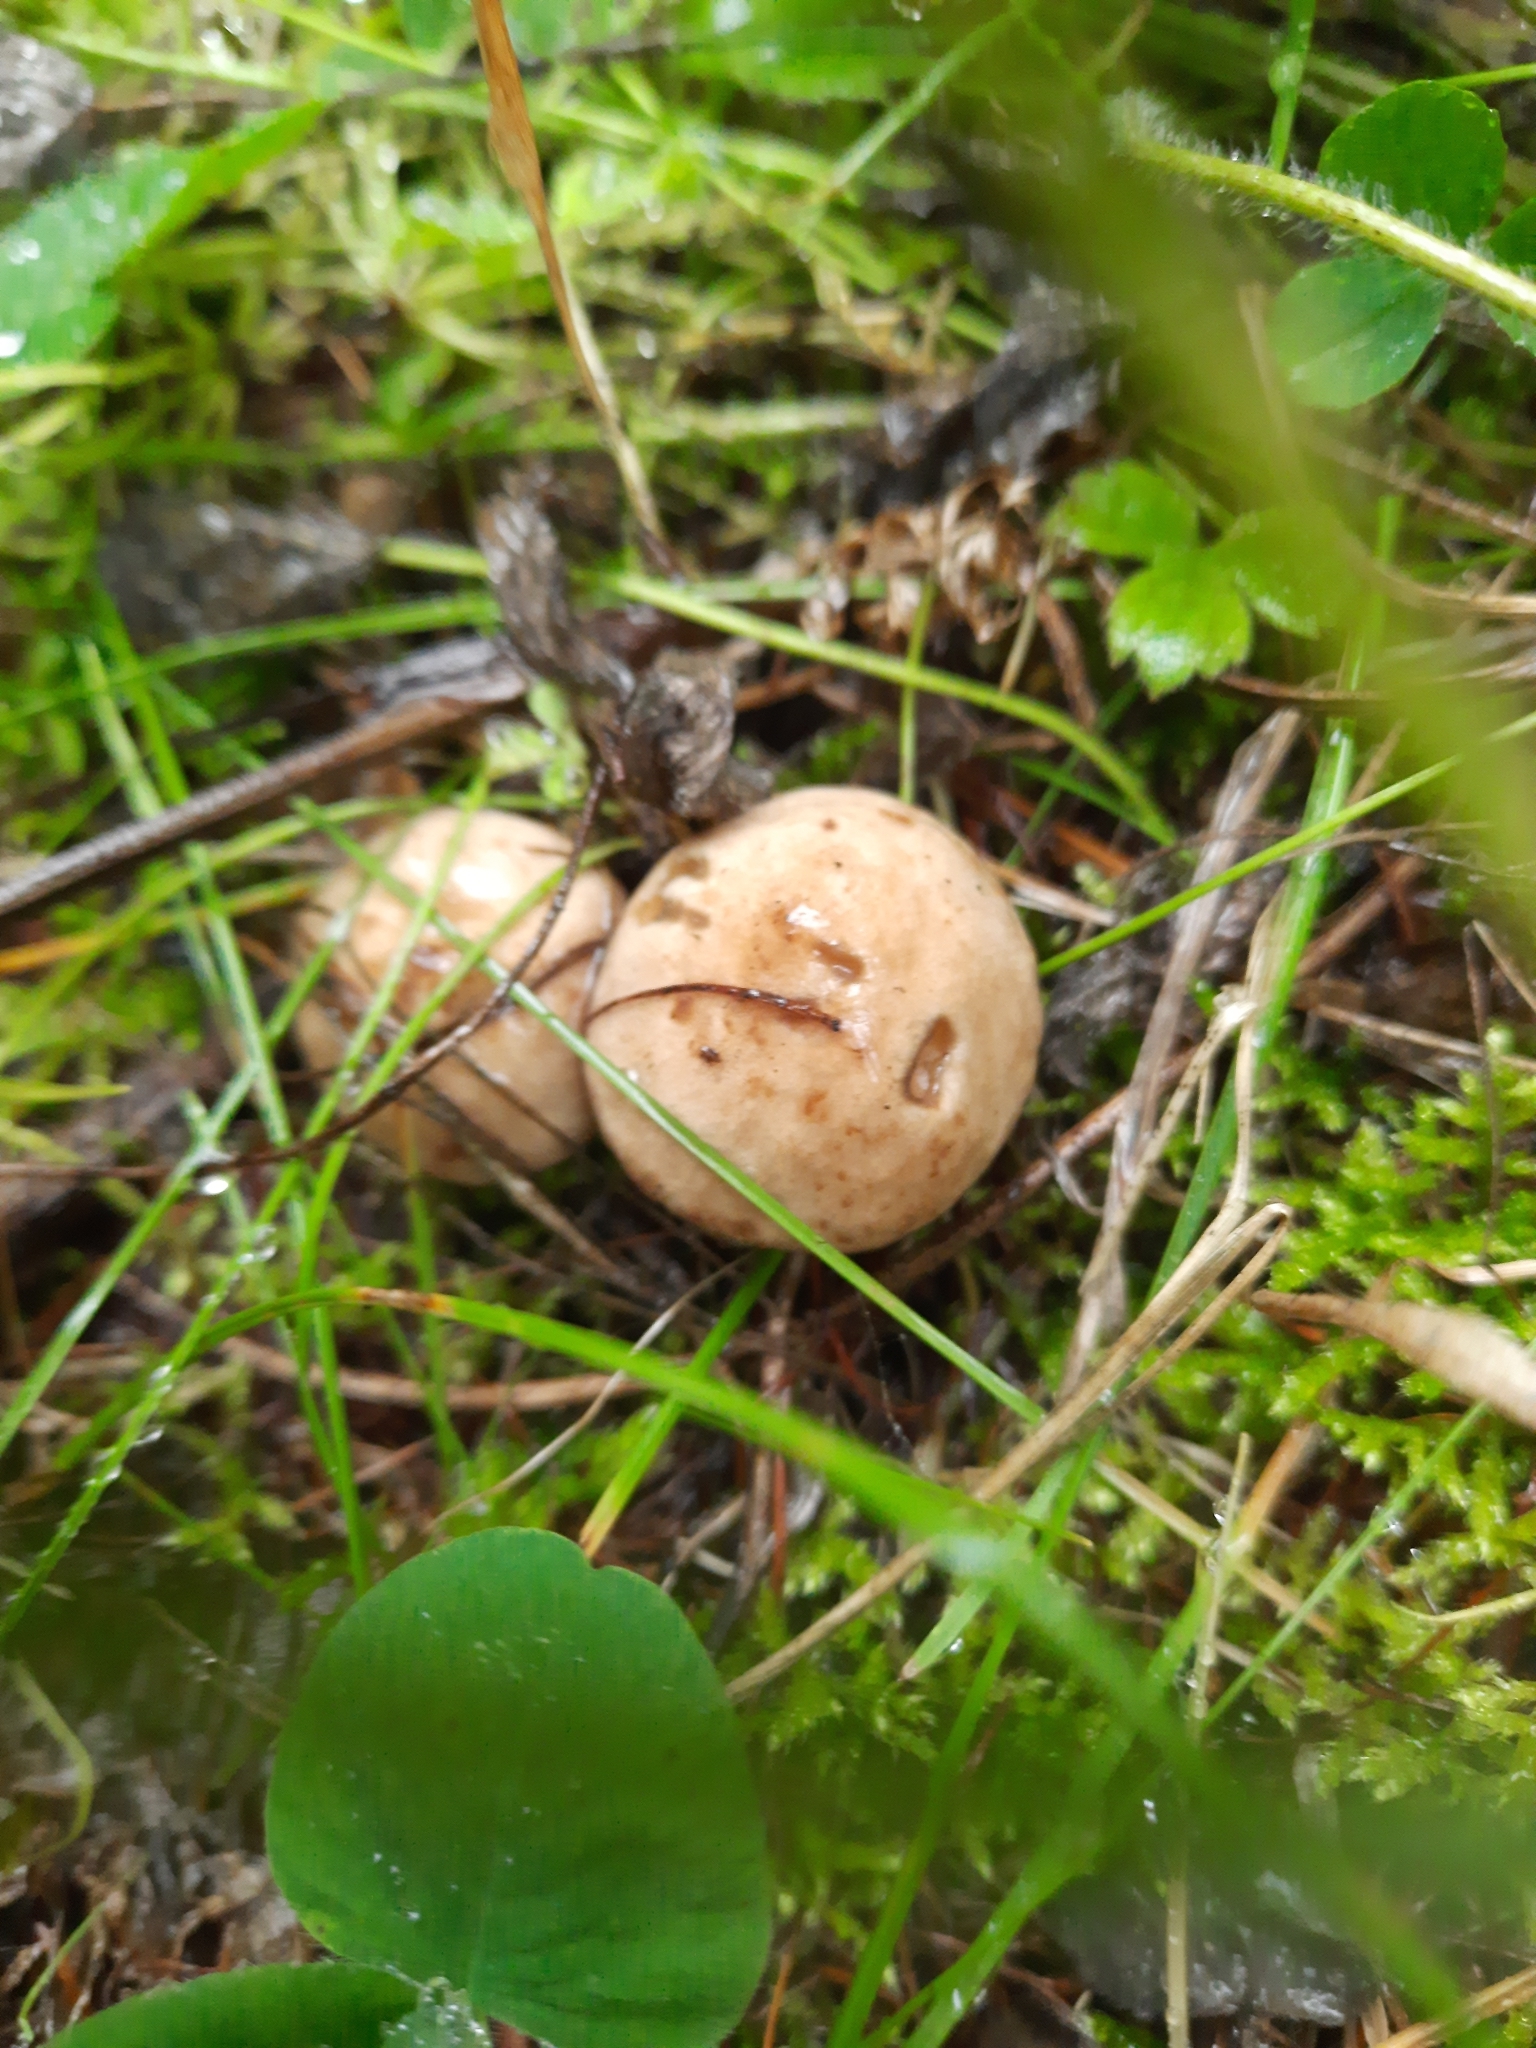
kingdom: Fungi
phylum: Basidiomycota
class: Agaricomycetes
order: Boletales
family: Suillaceae
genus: Suillus
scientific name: Suillus viscidus
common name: Sticky bolete
